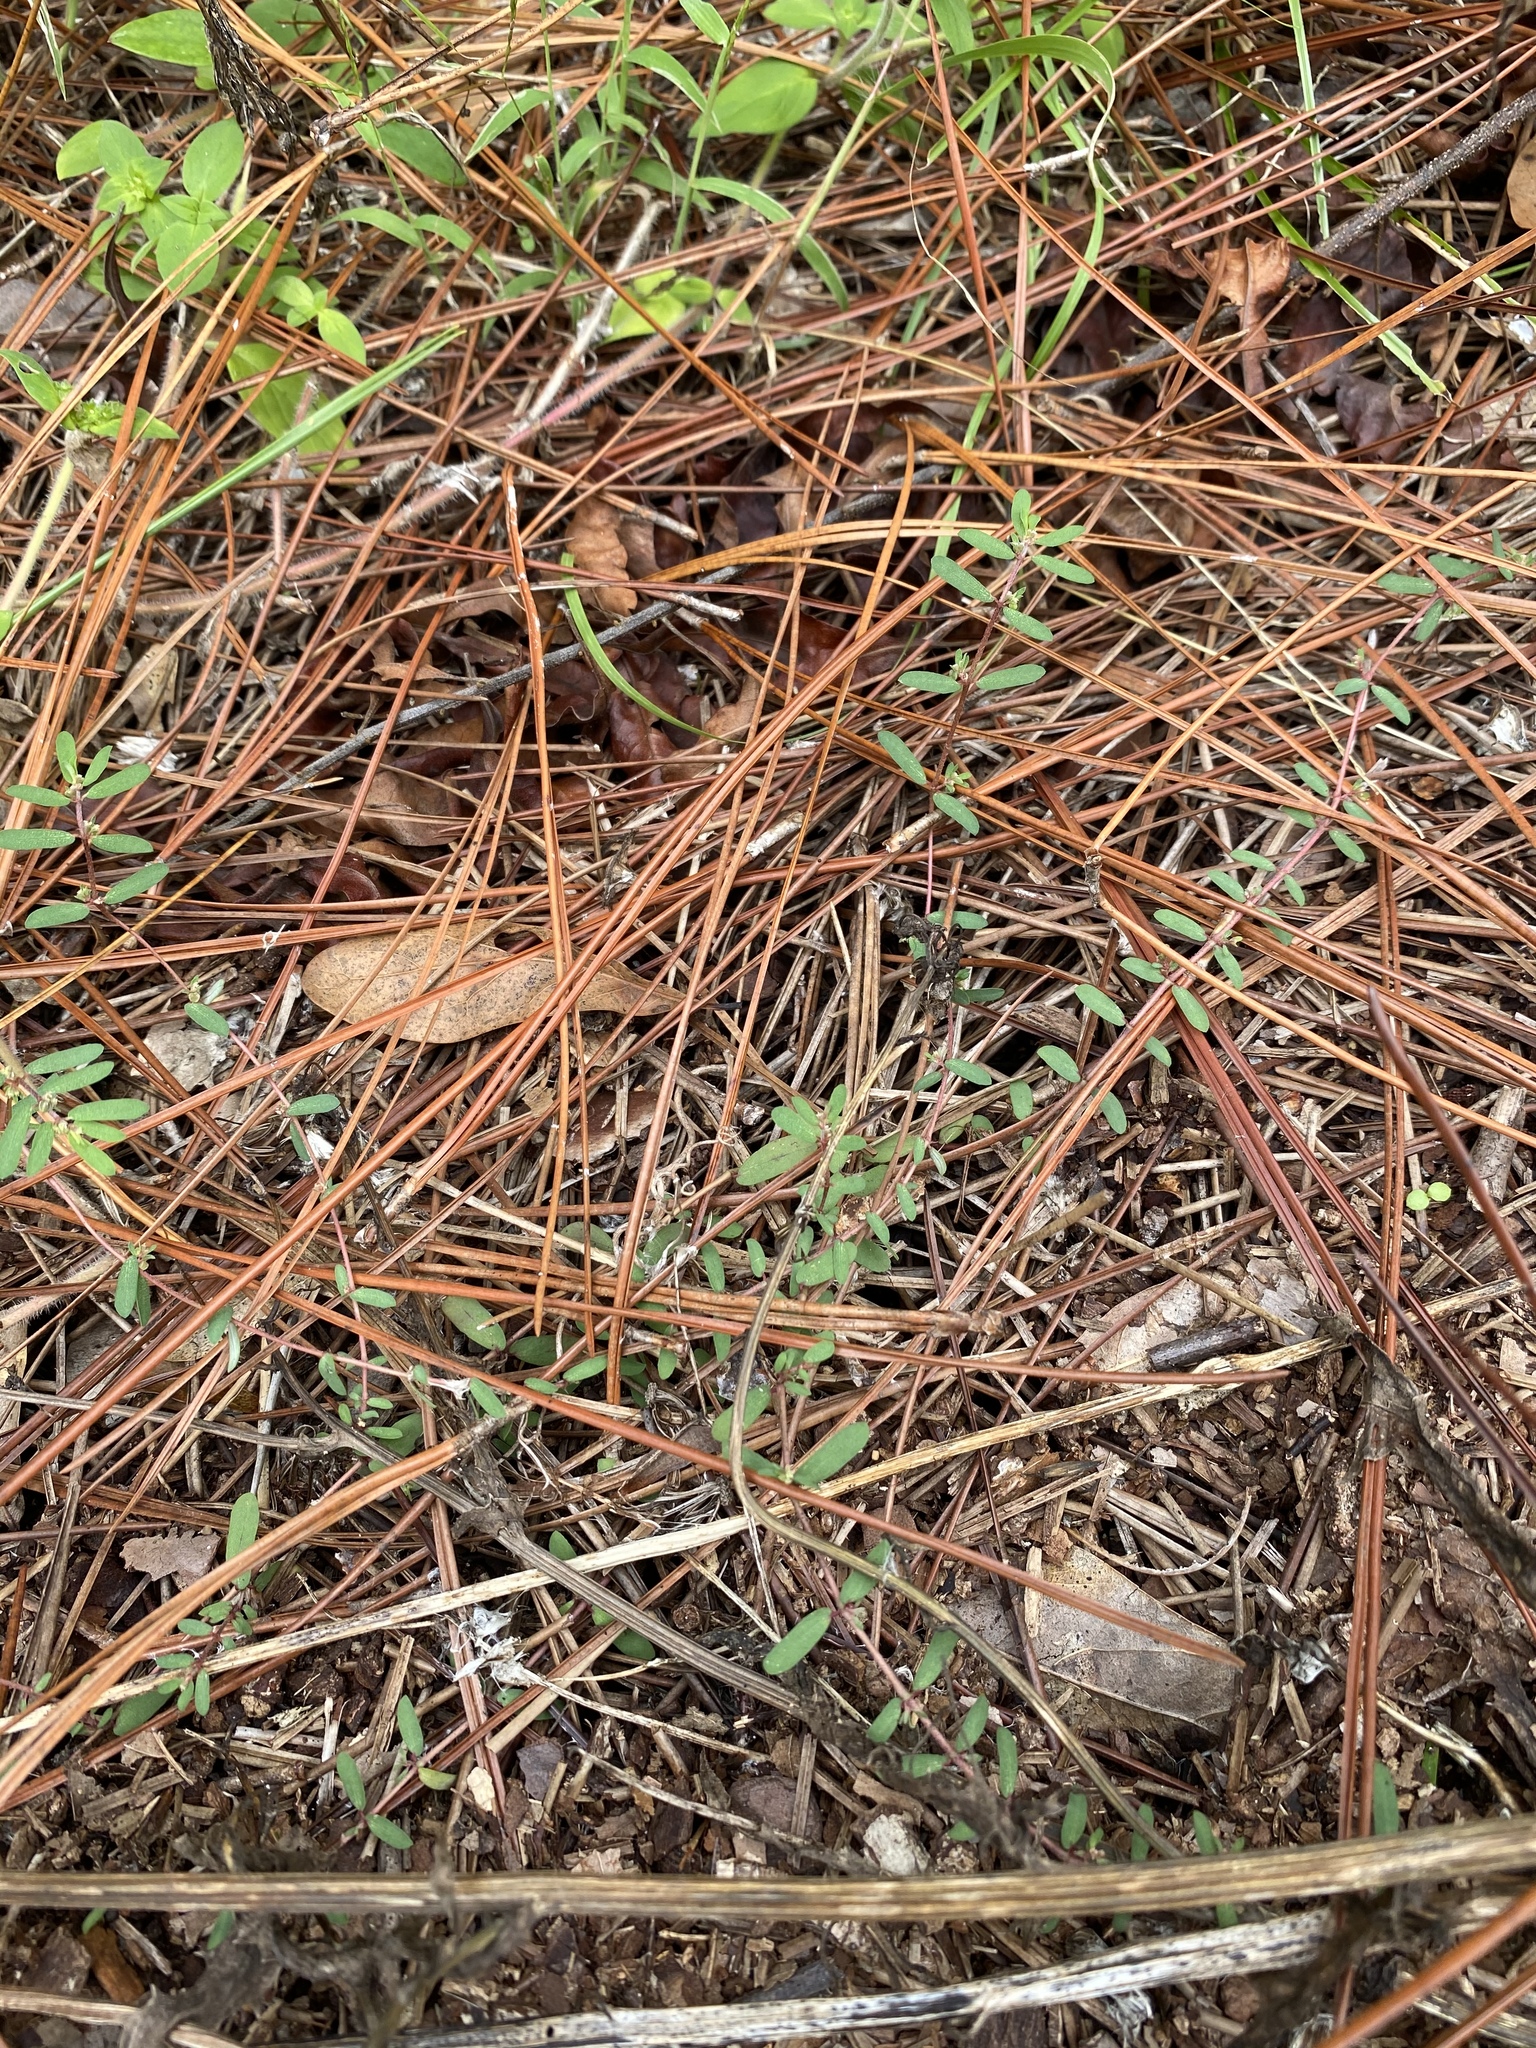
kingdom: Plantae
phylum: Tracheophyta
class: Magnoliopsida
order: Malpighiales
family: Euphorbiaceae
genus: Euphorbia
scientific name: Euphorbia maculata
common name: Spotted spurge
